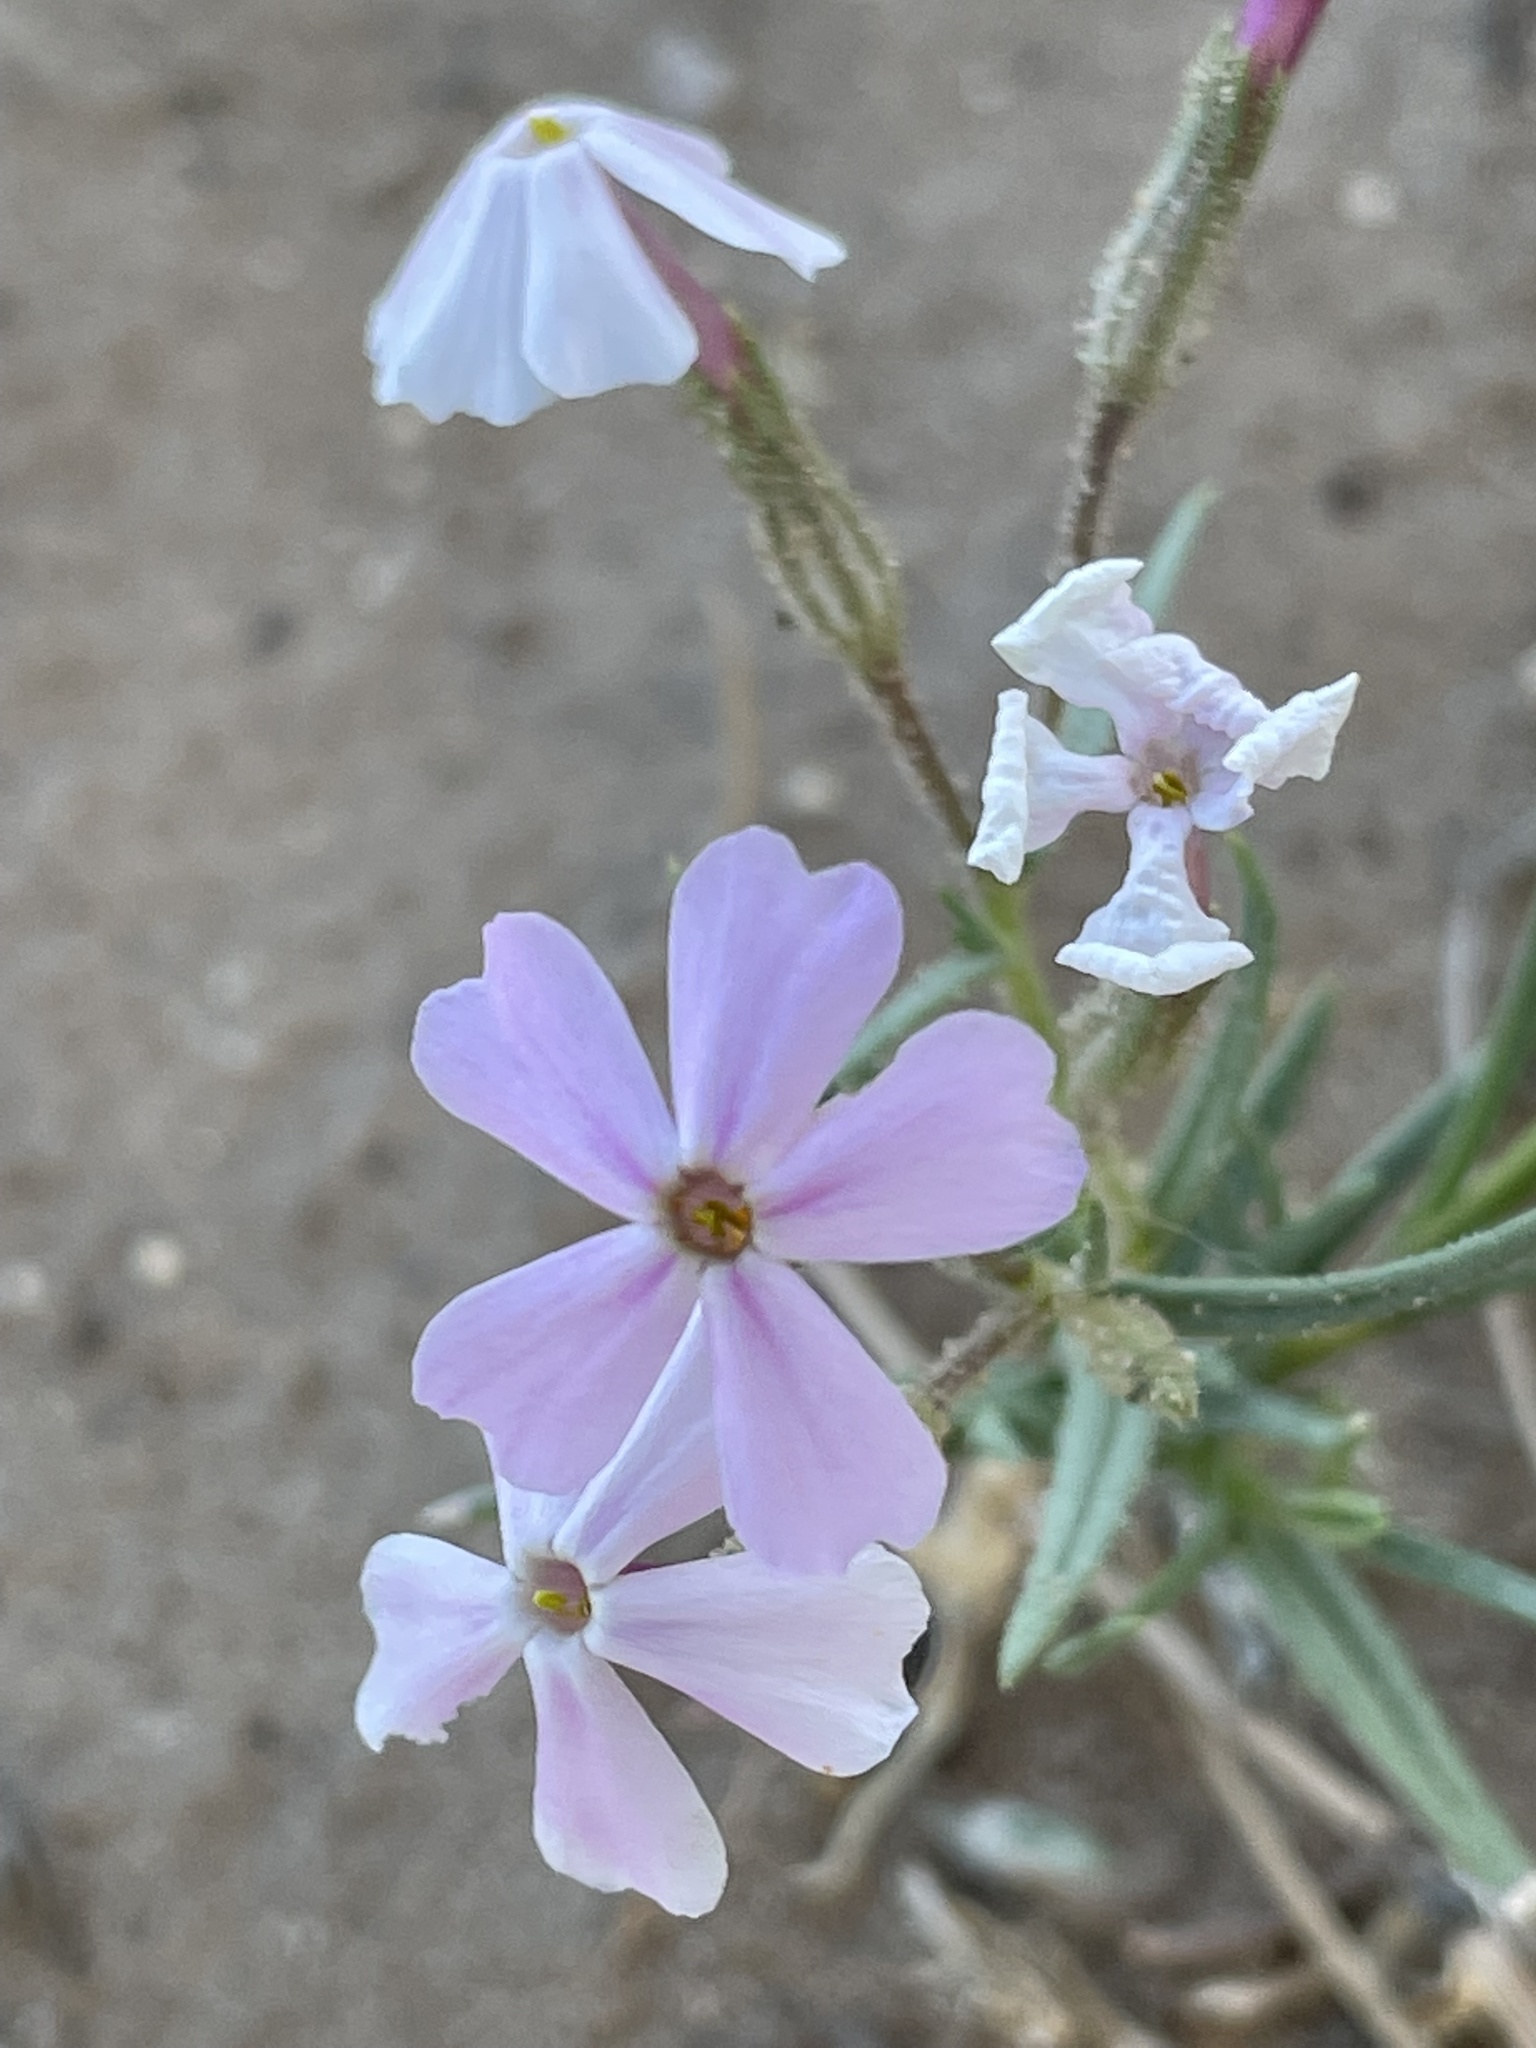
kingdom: Plantae
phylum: Tracheophyta
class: Magnoliopsida
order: Ericales
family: Polemoniaceae
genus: Phlox
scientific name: Phlox longifolia
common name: Longleaf phlox
